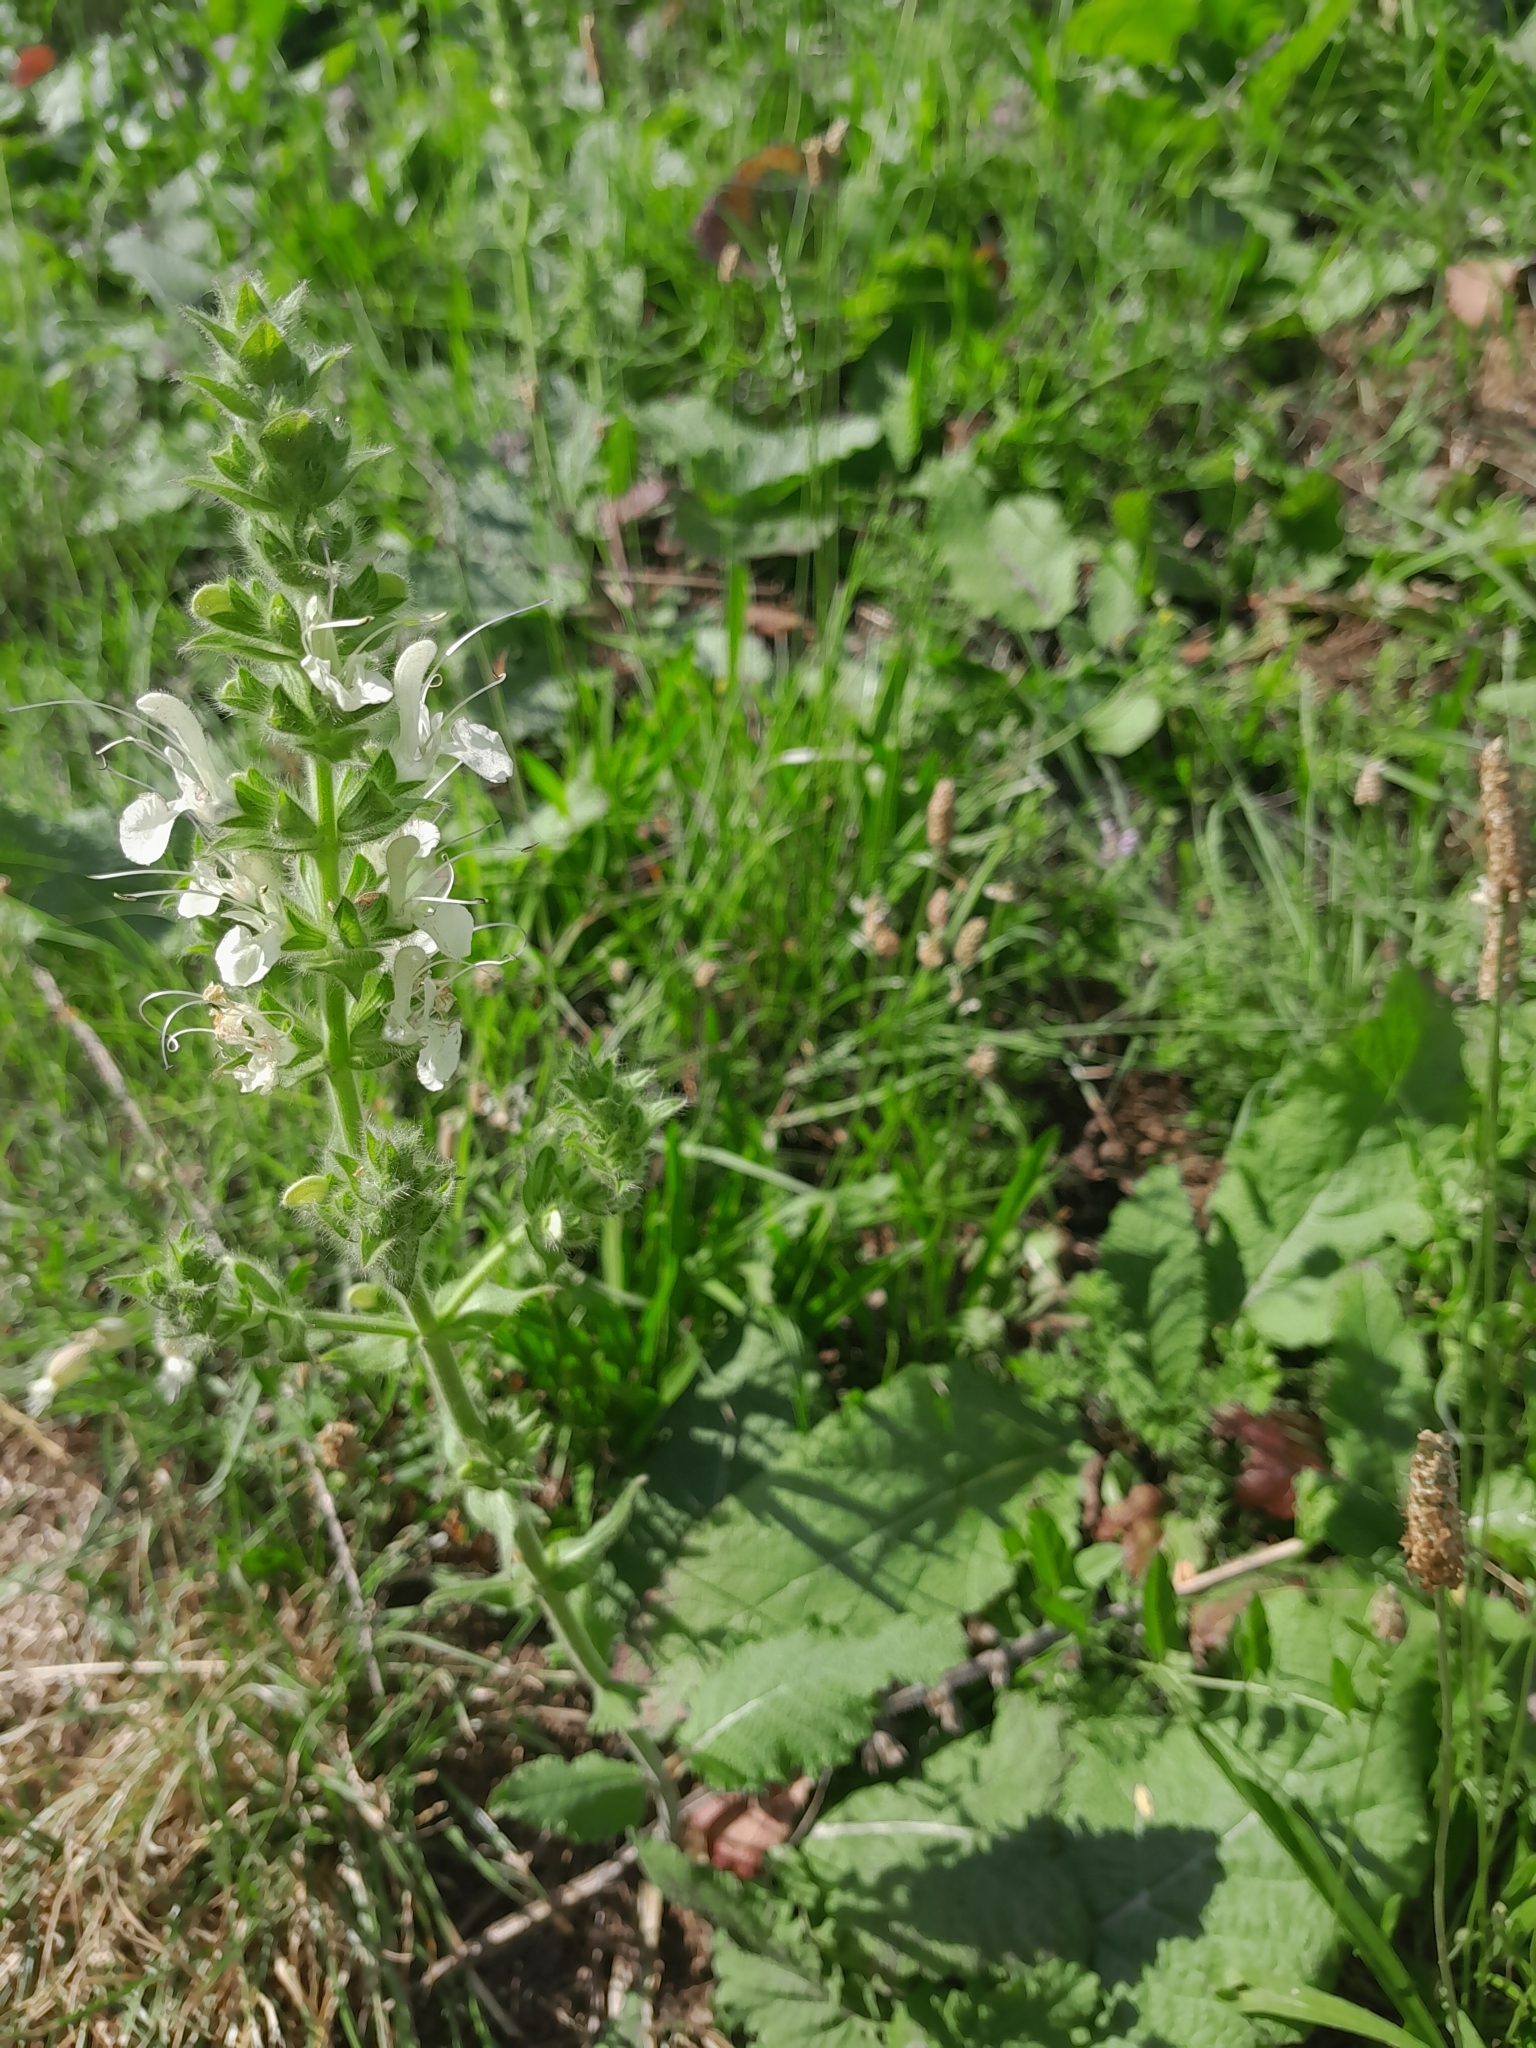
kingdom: Plantae
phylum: Tracheophyta
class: Magnoliopsida
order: Lamiales
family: Lamiaceae
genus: Salvia
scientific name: Salvia austriaca
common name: Austrian sage
